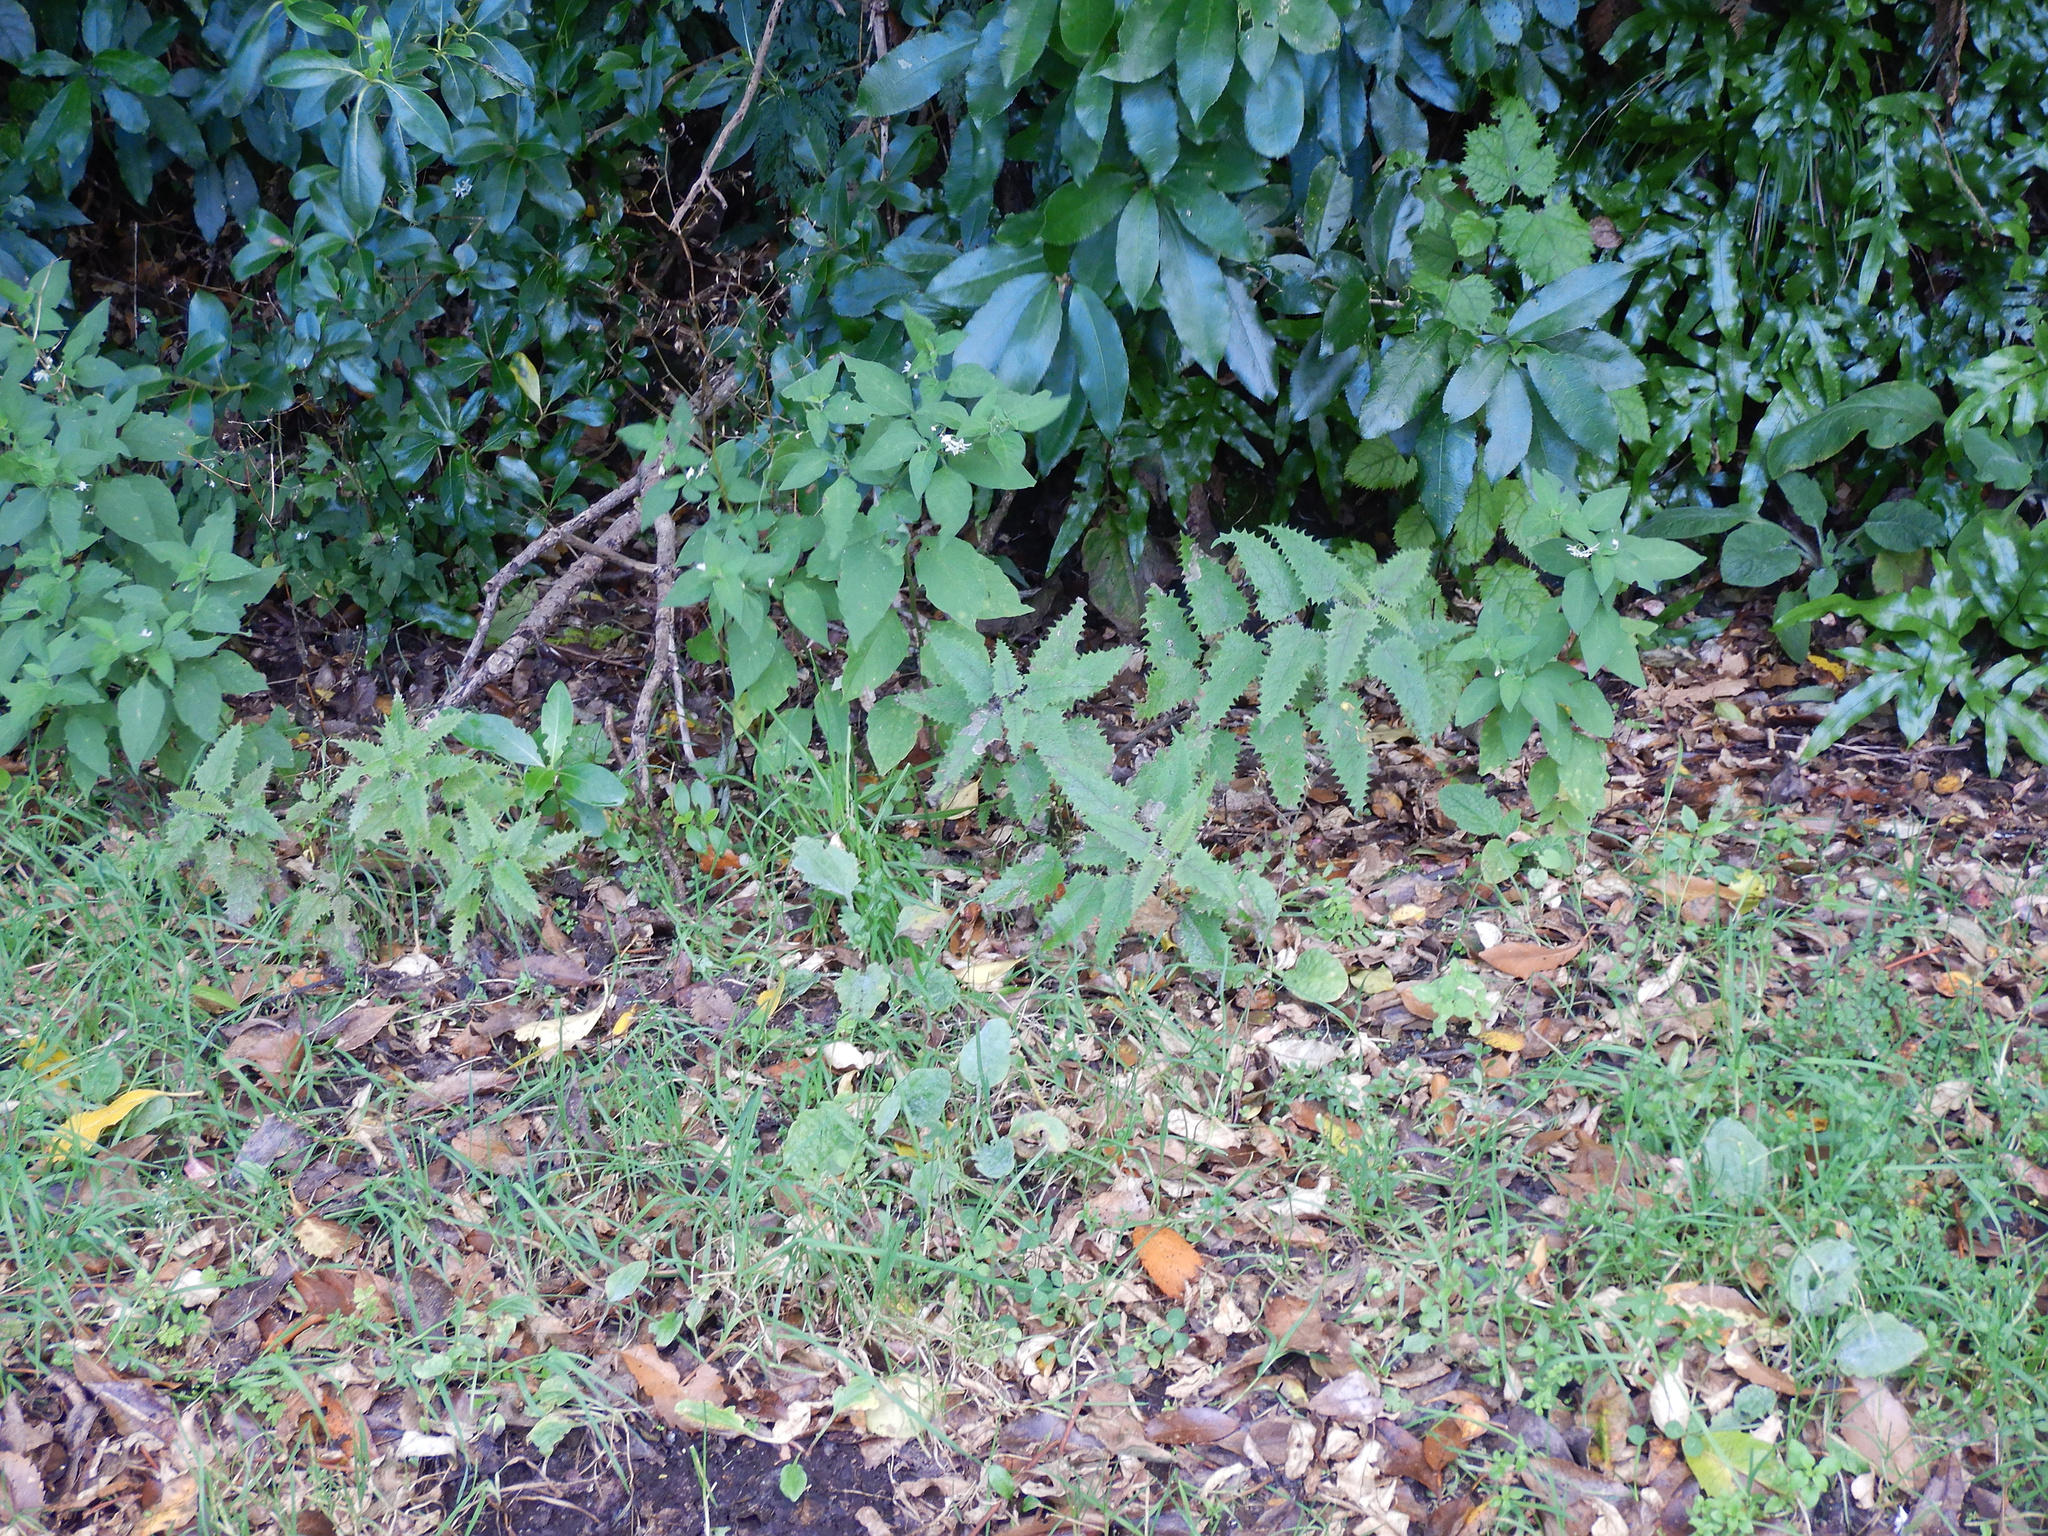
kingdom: Plantae
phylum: Tracheophyta
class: Magnoliopsida
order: Rosales
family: Urticaceae
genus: Urtica
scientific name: Urtica ferox
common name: Tree nettle
